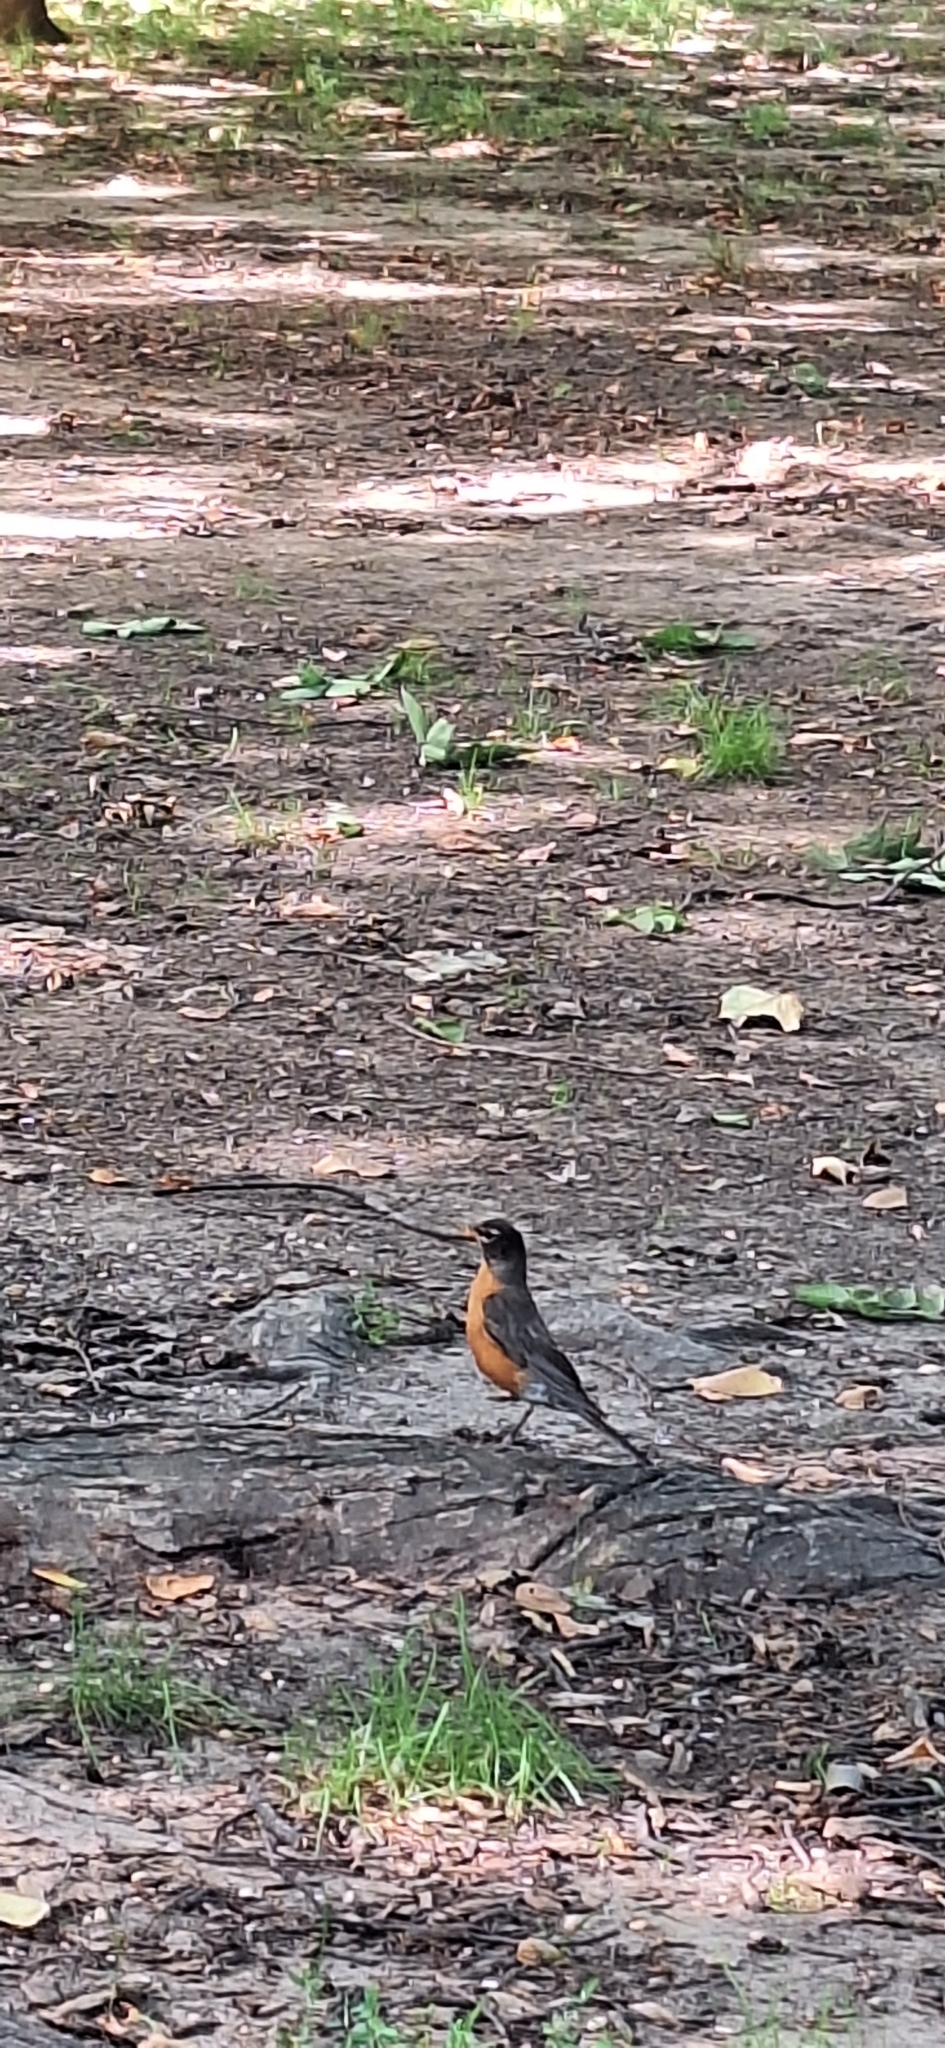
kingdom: Animalia
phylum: Chordata
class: Aves
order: Passeriformes
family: Turdidae
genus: Turdus
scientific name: Turdus migratorius
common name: American robin
